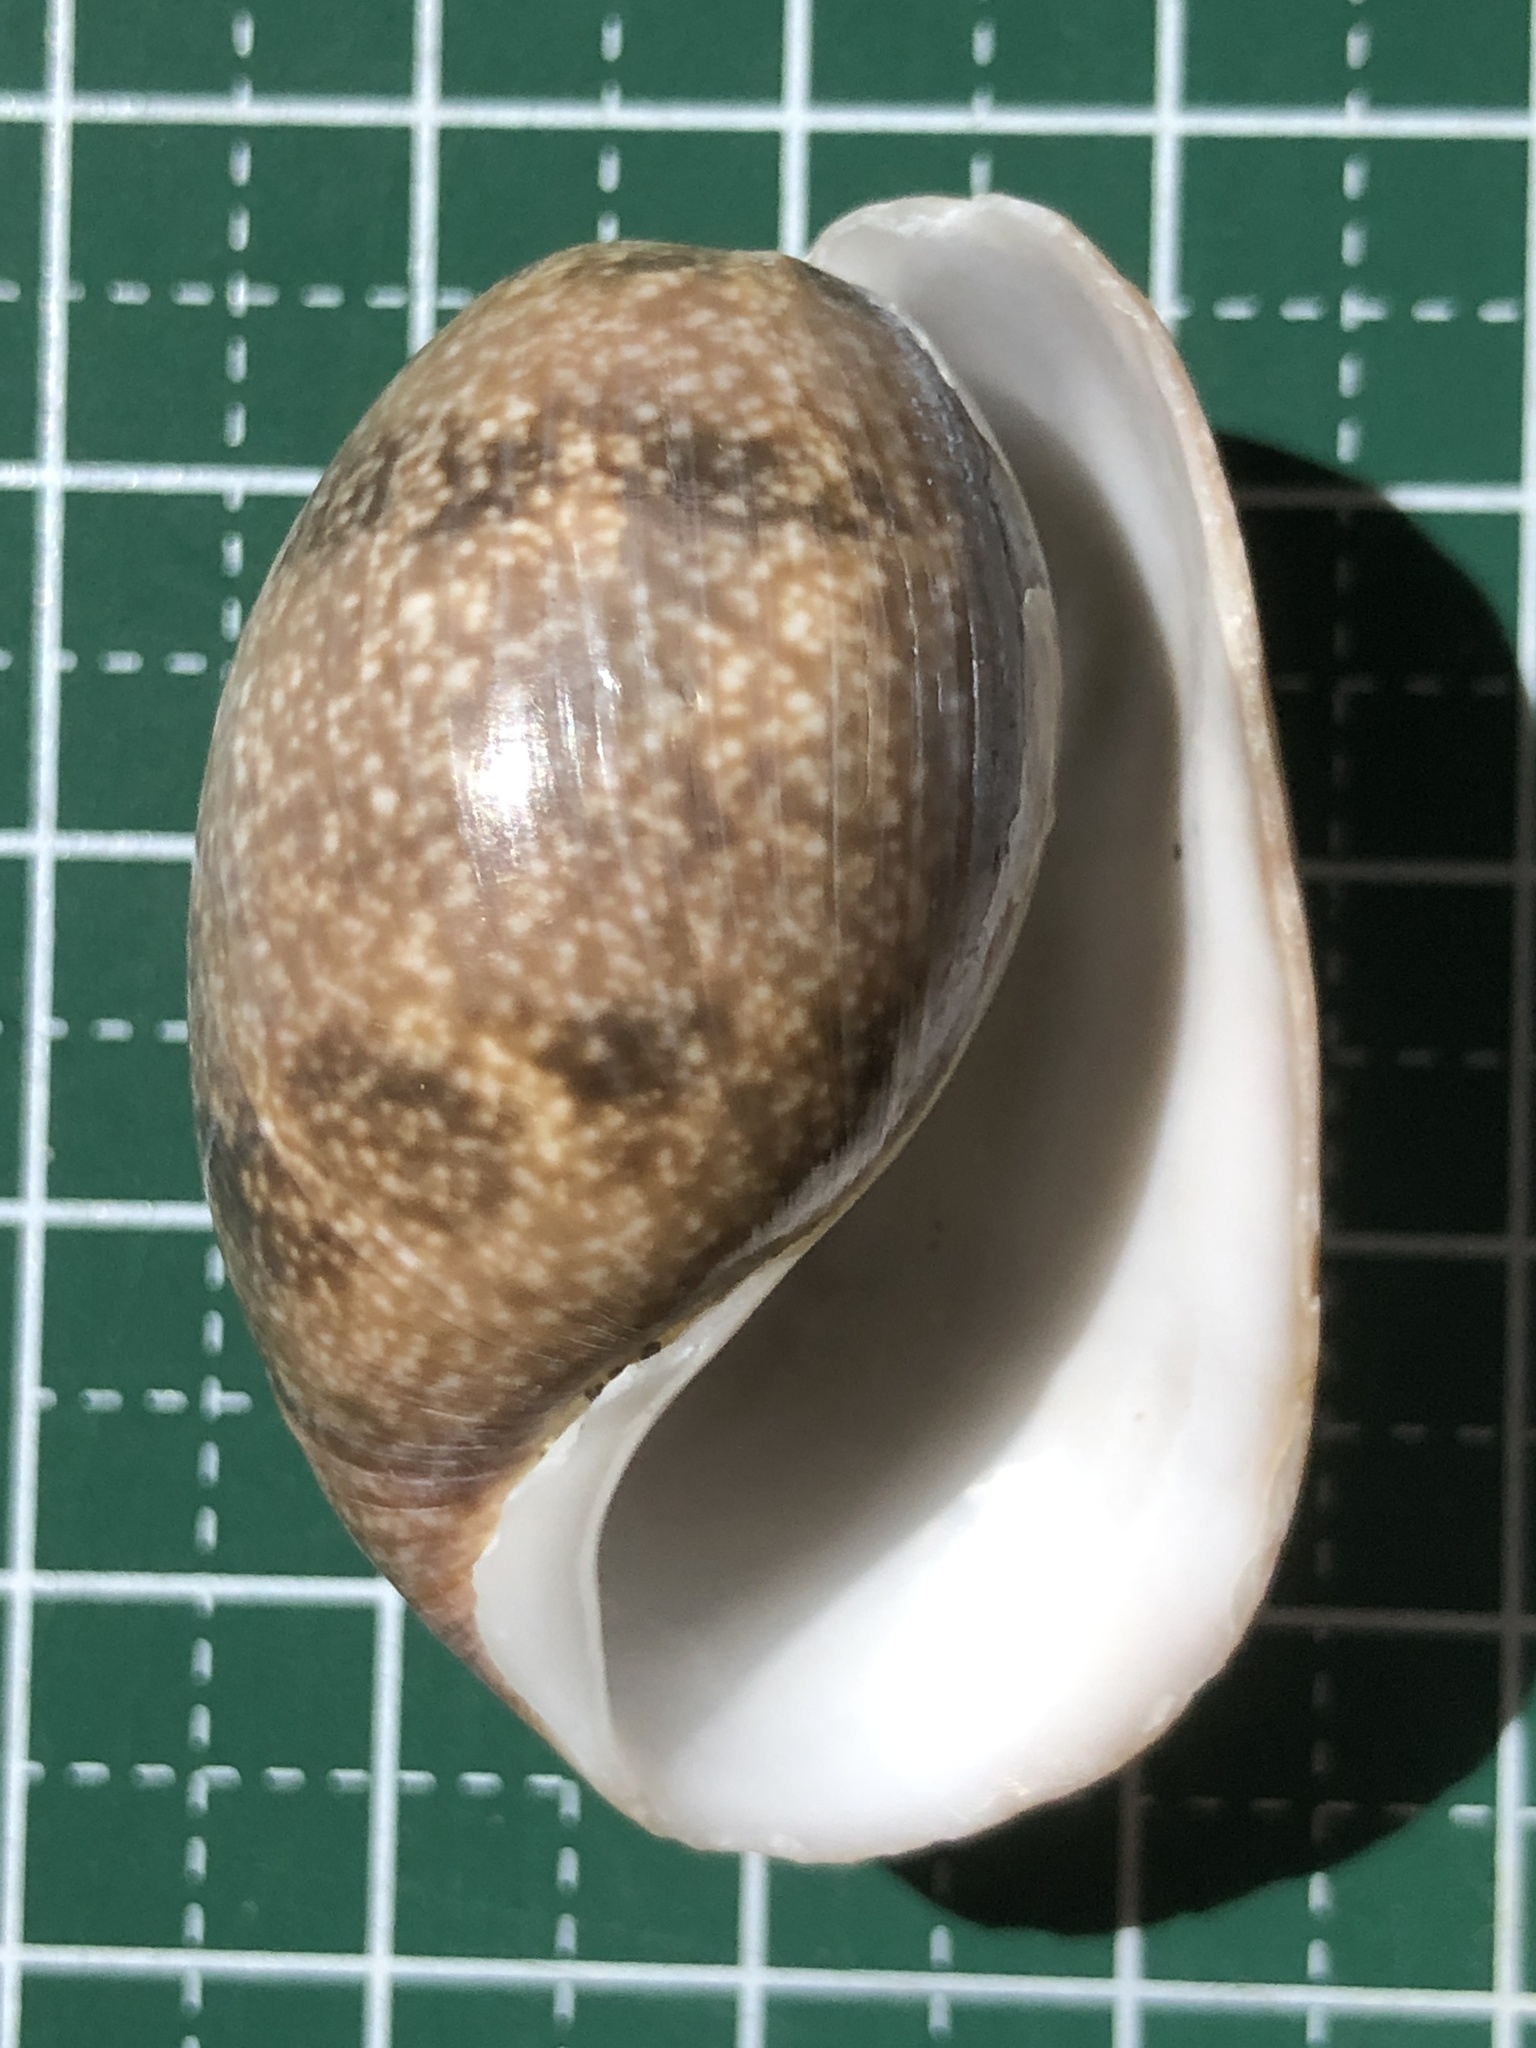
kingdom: Animalia
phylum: Mollusca
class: Gastropoda
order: Cephalaspidea
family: Bullidae
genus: Bulla
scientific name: Bulla vernicosa
